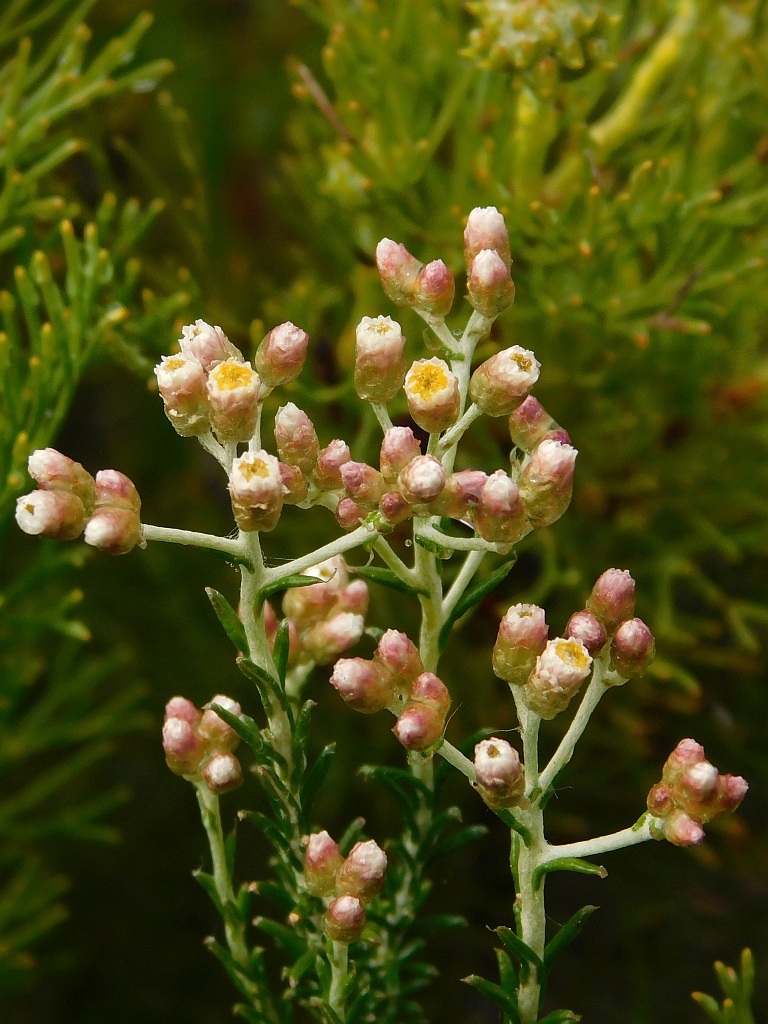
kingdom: Plantae
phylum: Tracheophyta
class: Magnoliopsida
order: Asterales
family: Asteraceae
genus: Helichrysum
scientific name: Helichrysum teretifolium
